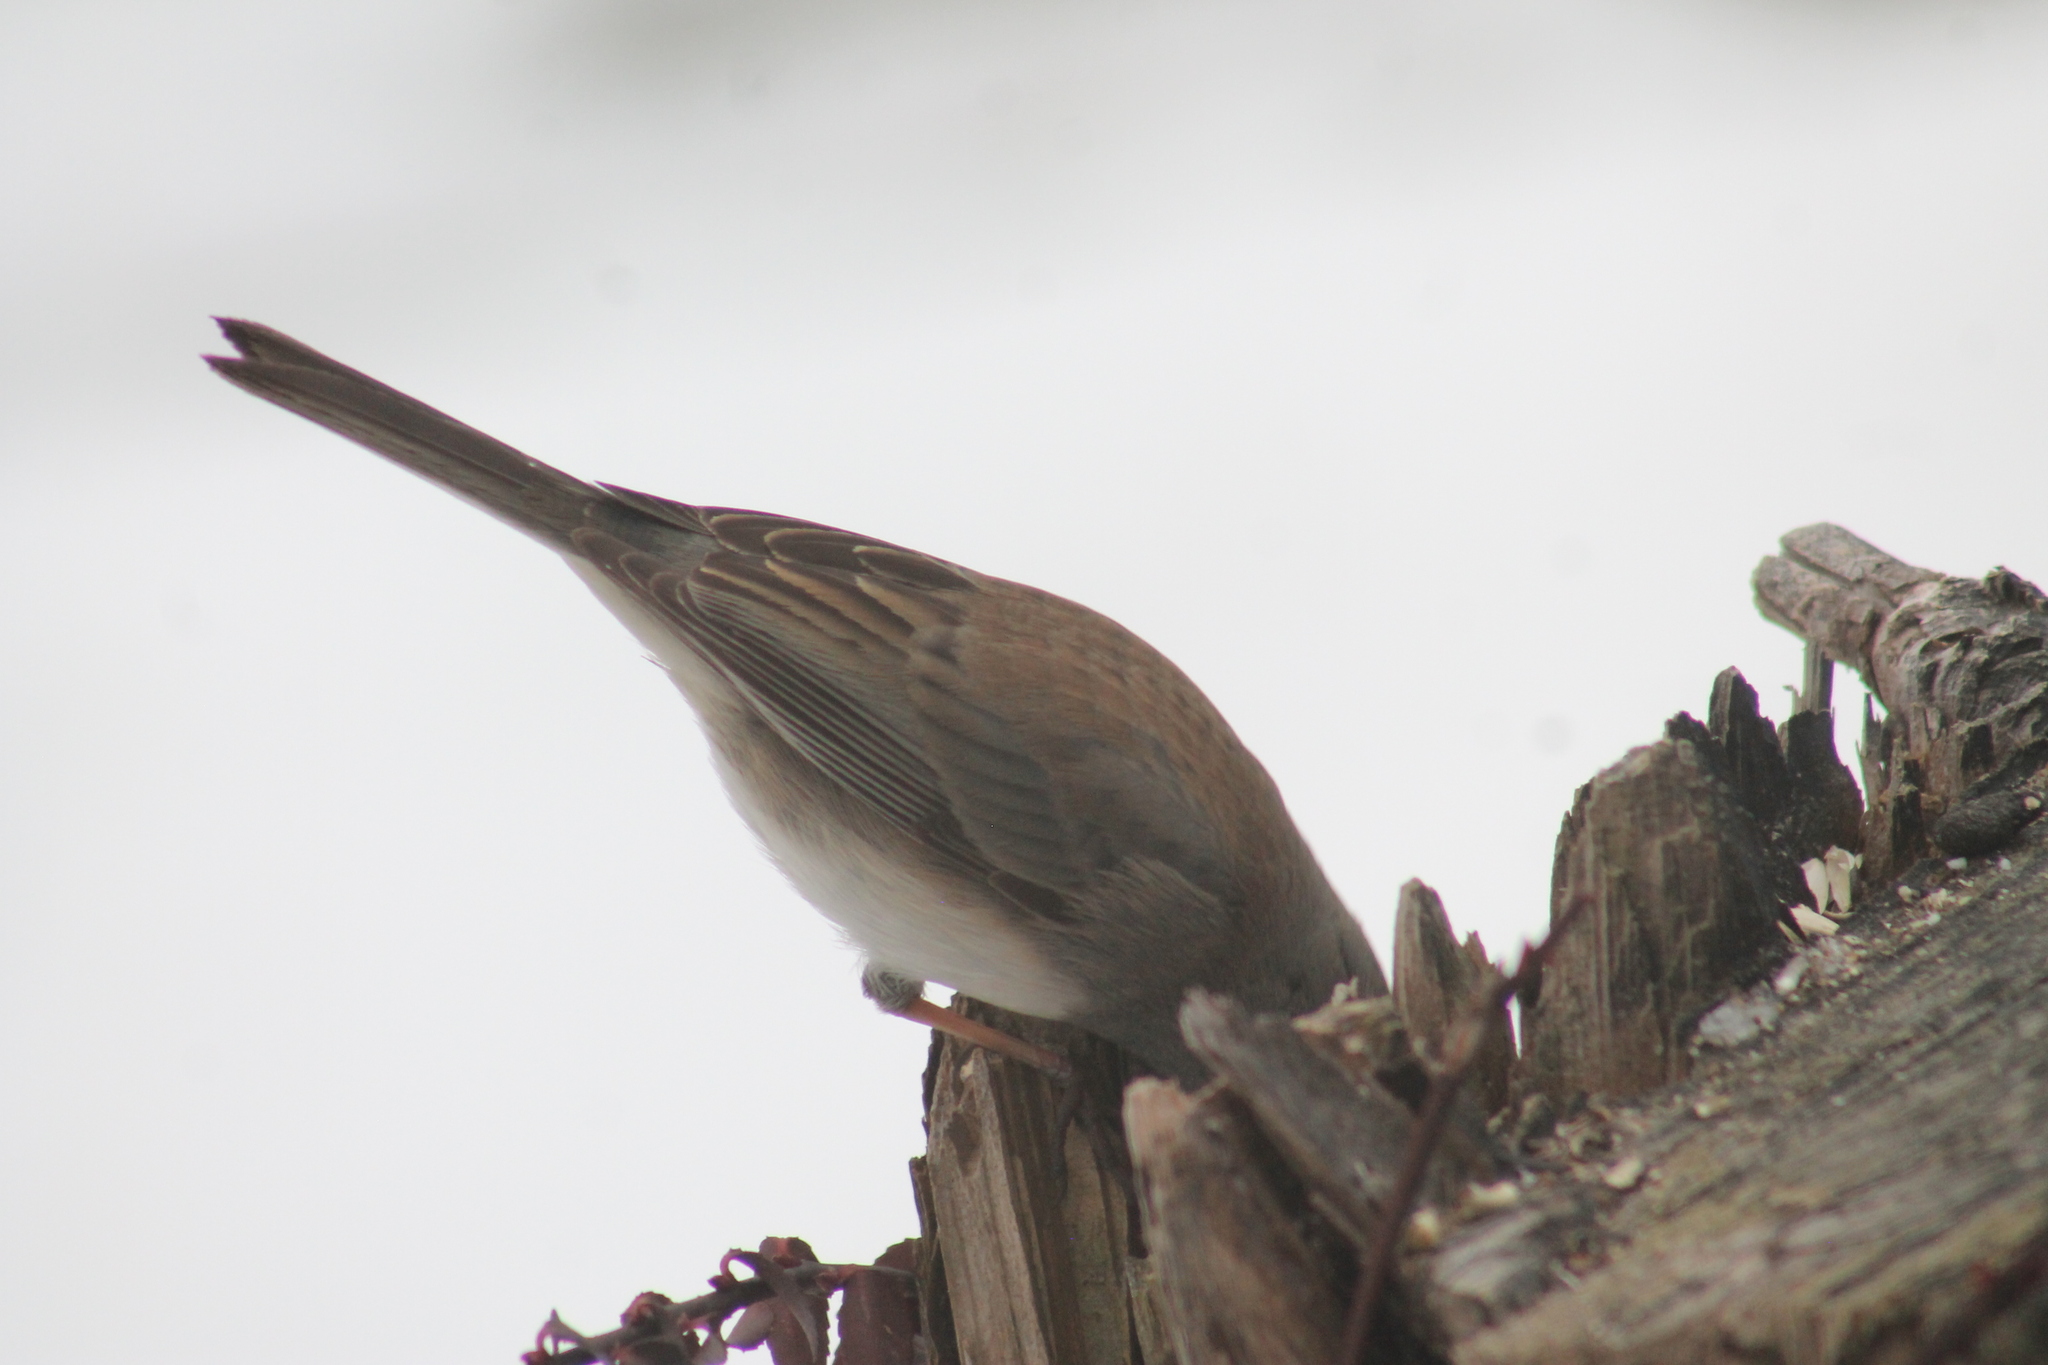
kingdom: Animalia
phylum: Chordata
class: Aves
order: Passeriformes
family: Passerellidae
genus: Junco
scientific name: Junco hyemalis
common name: Dark-eyed junco
